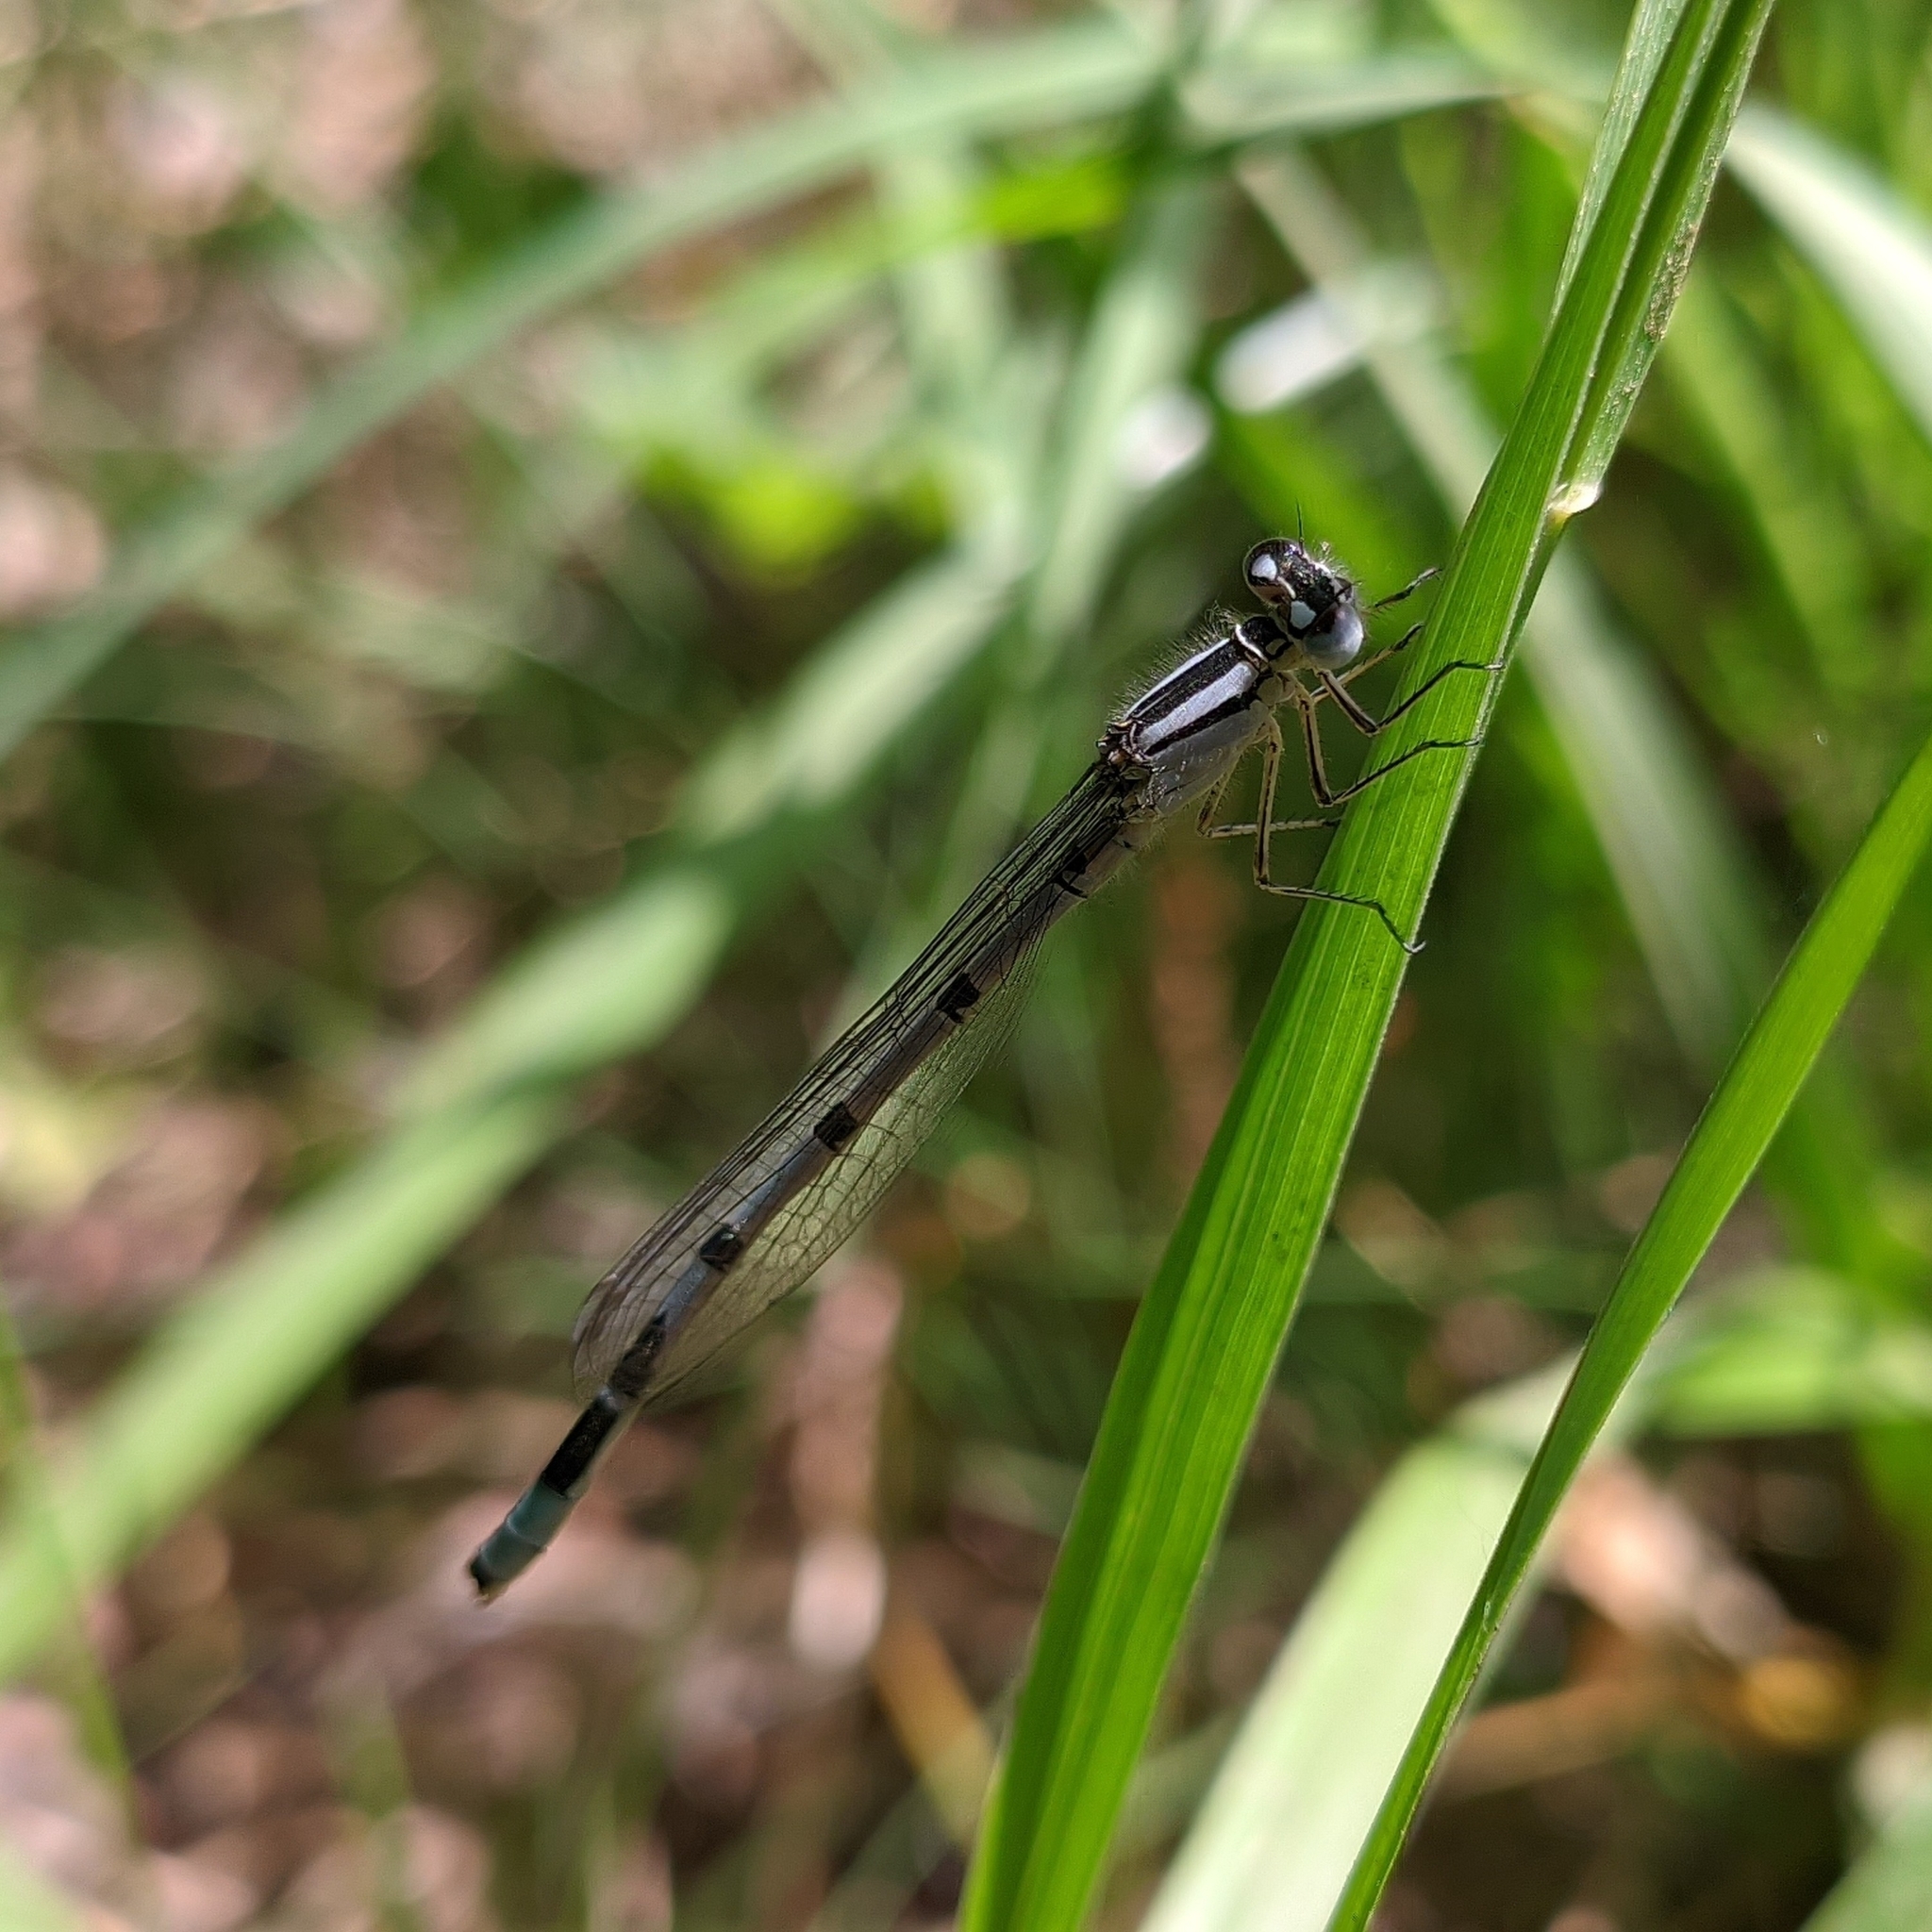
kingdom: Animalia
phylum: Arthropoda
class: Insecta
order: Odonata
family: Coenagrionidae
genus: Enallagma
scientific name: Enallagma cyathigerum
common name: Common blue damselfly
